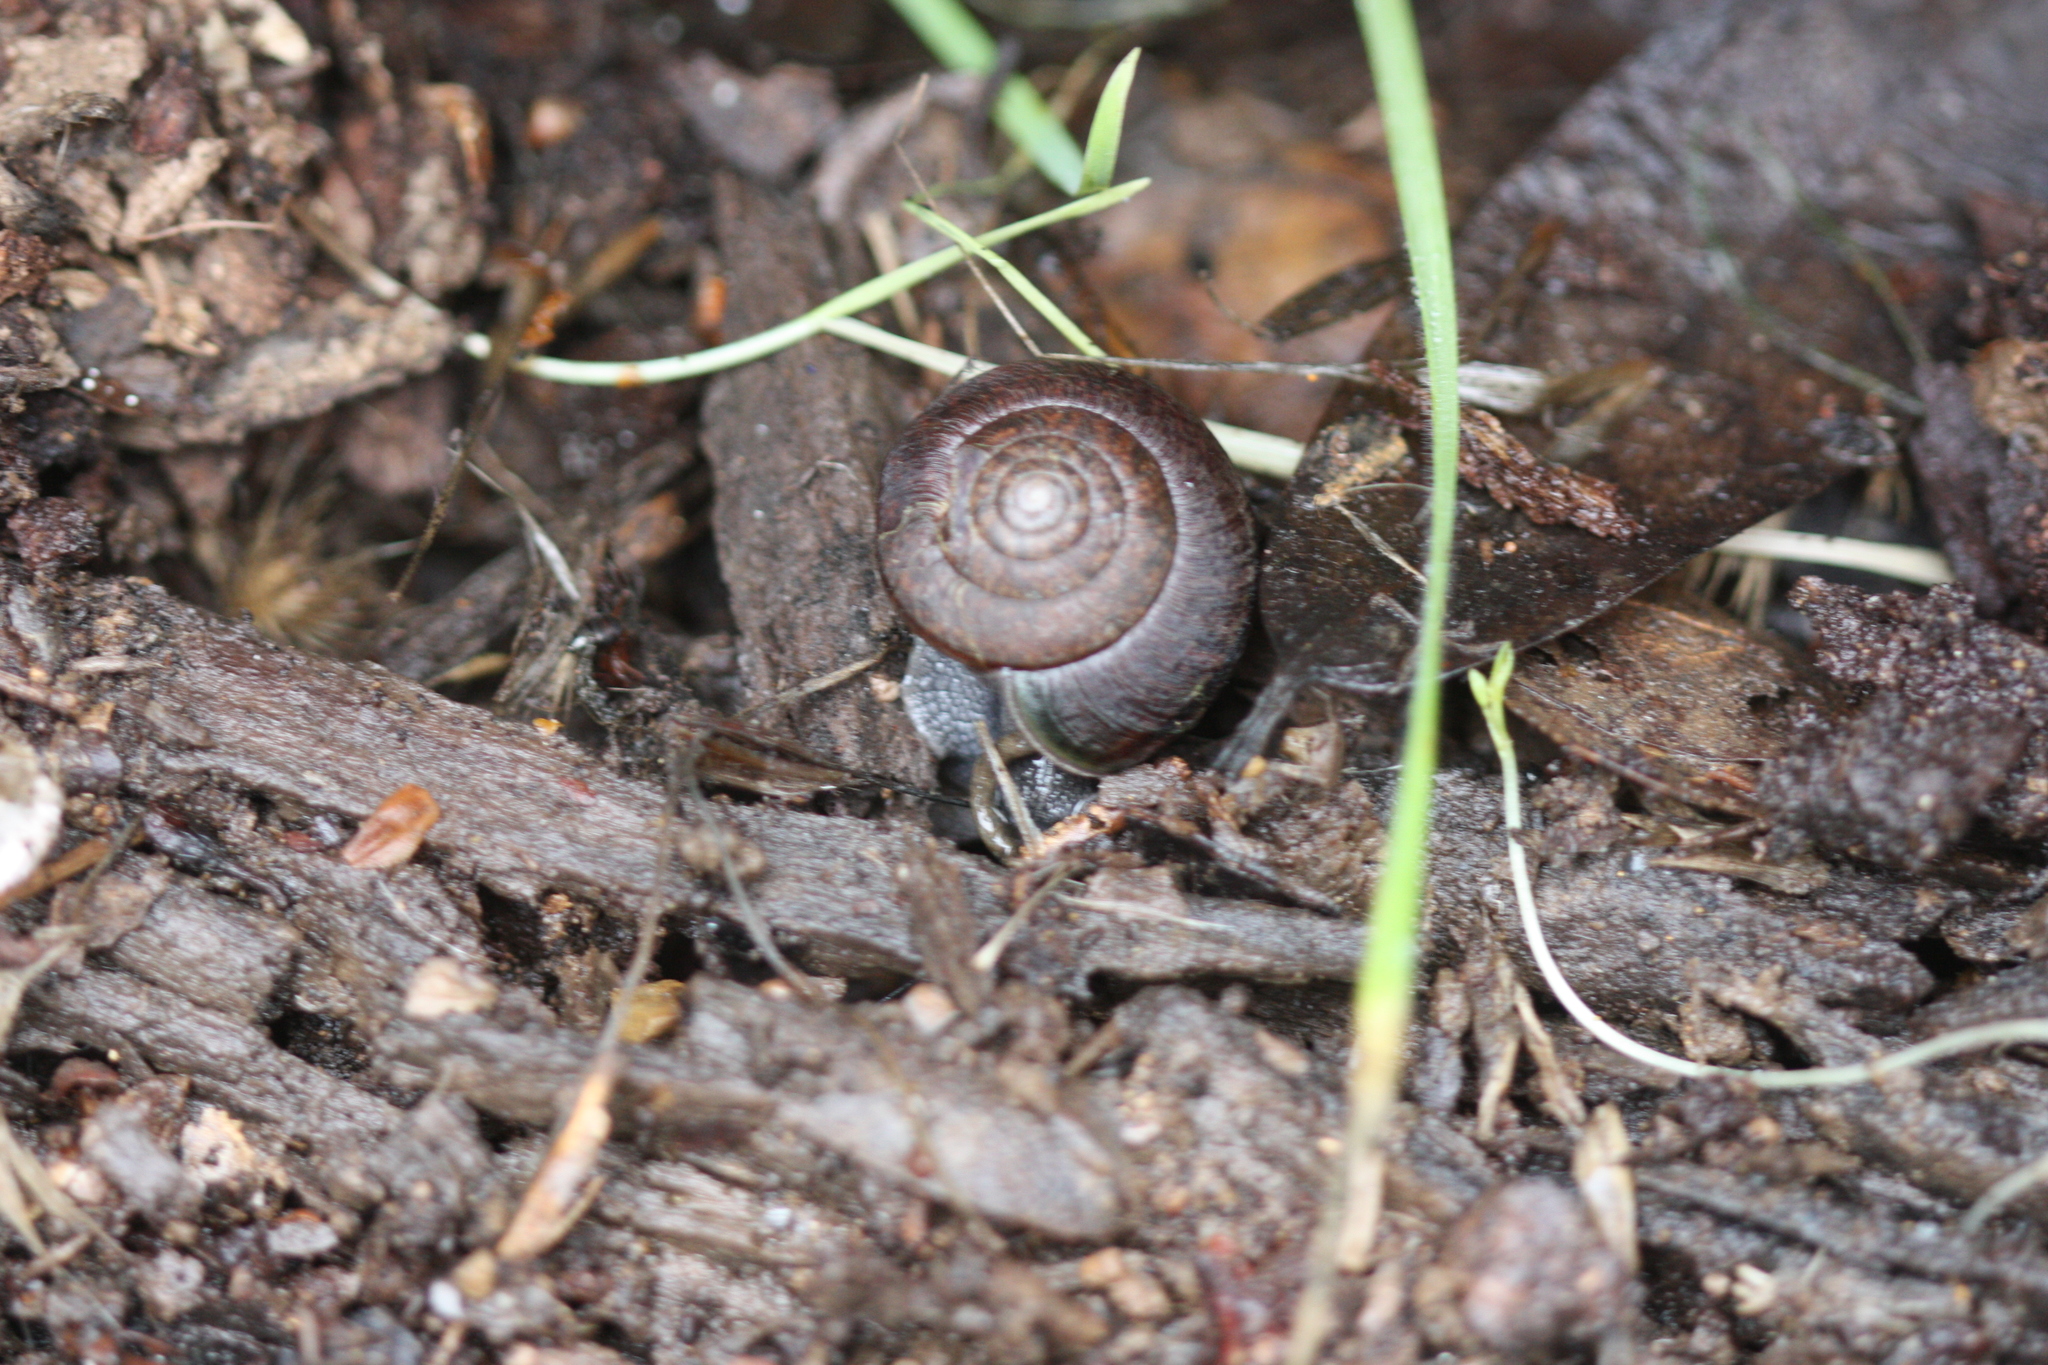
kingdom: Animalia
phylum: Mollusca
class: Gastropoda
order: Stylommatophora
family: Xanthonychidae
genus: Helminthoglypta
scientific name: Helminthoglypta arrosa
